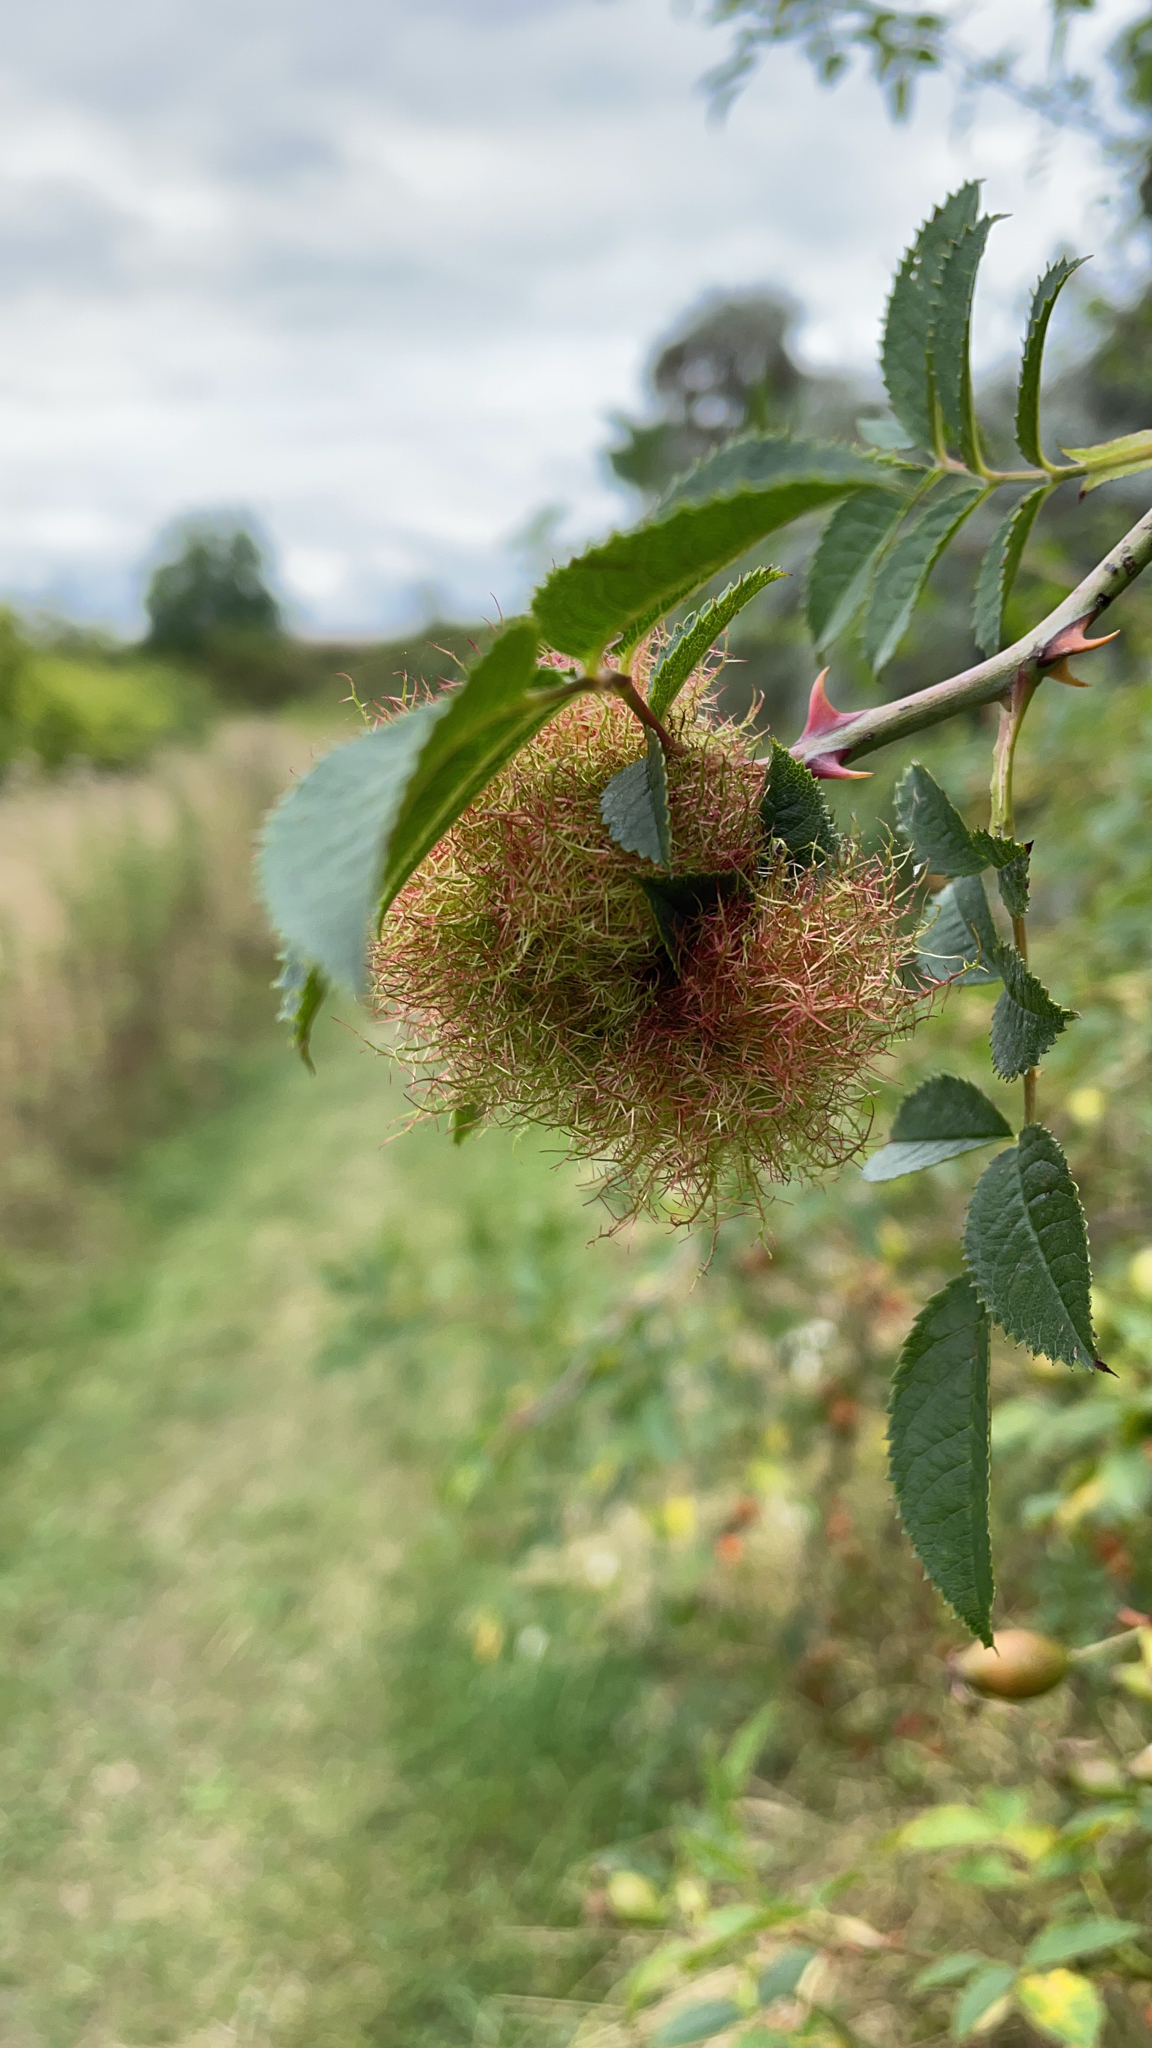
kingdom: Animalia
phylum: Arthropoda
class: Insecta
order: Hymenoptera
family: Cynipidae
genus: Diplolepis
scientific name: Diplolepis rosae
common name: Bedeguar gall
